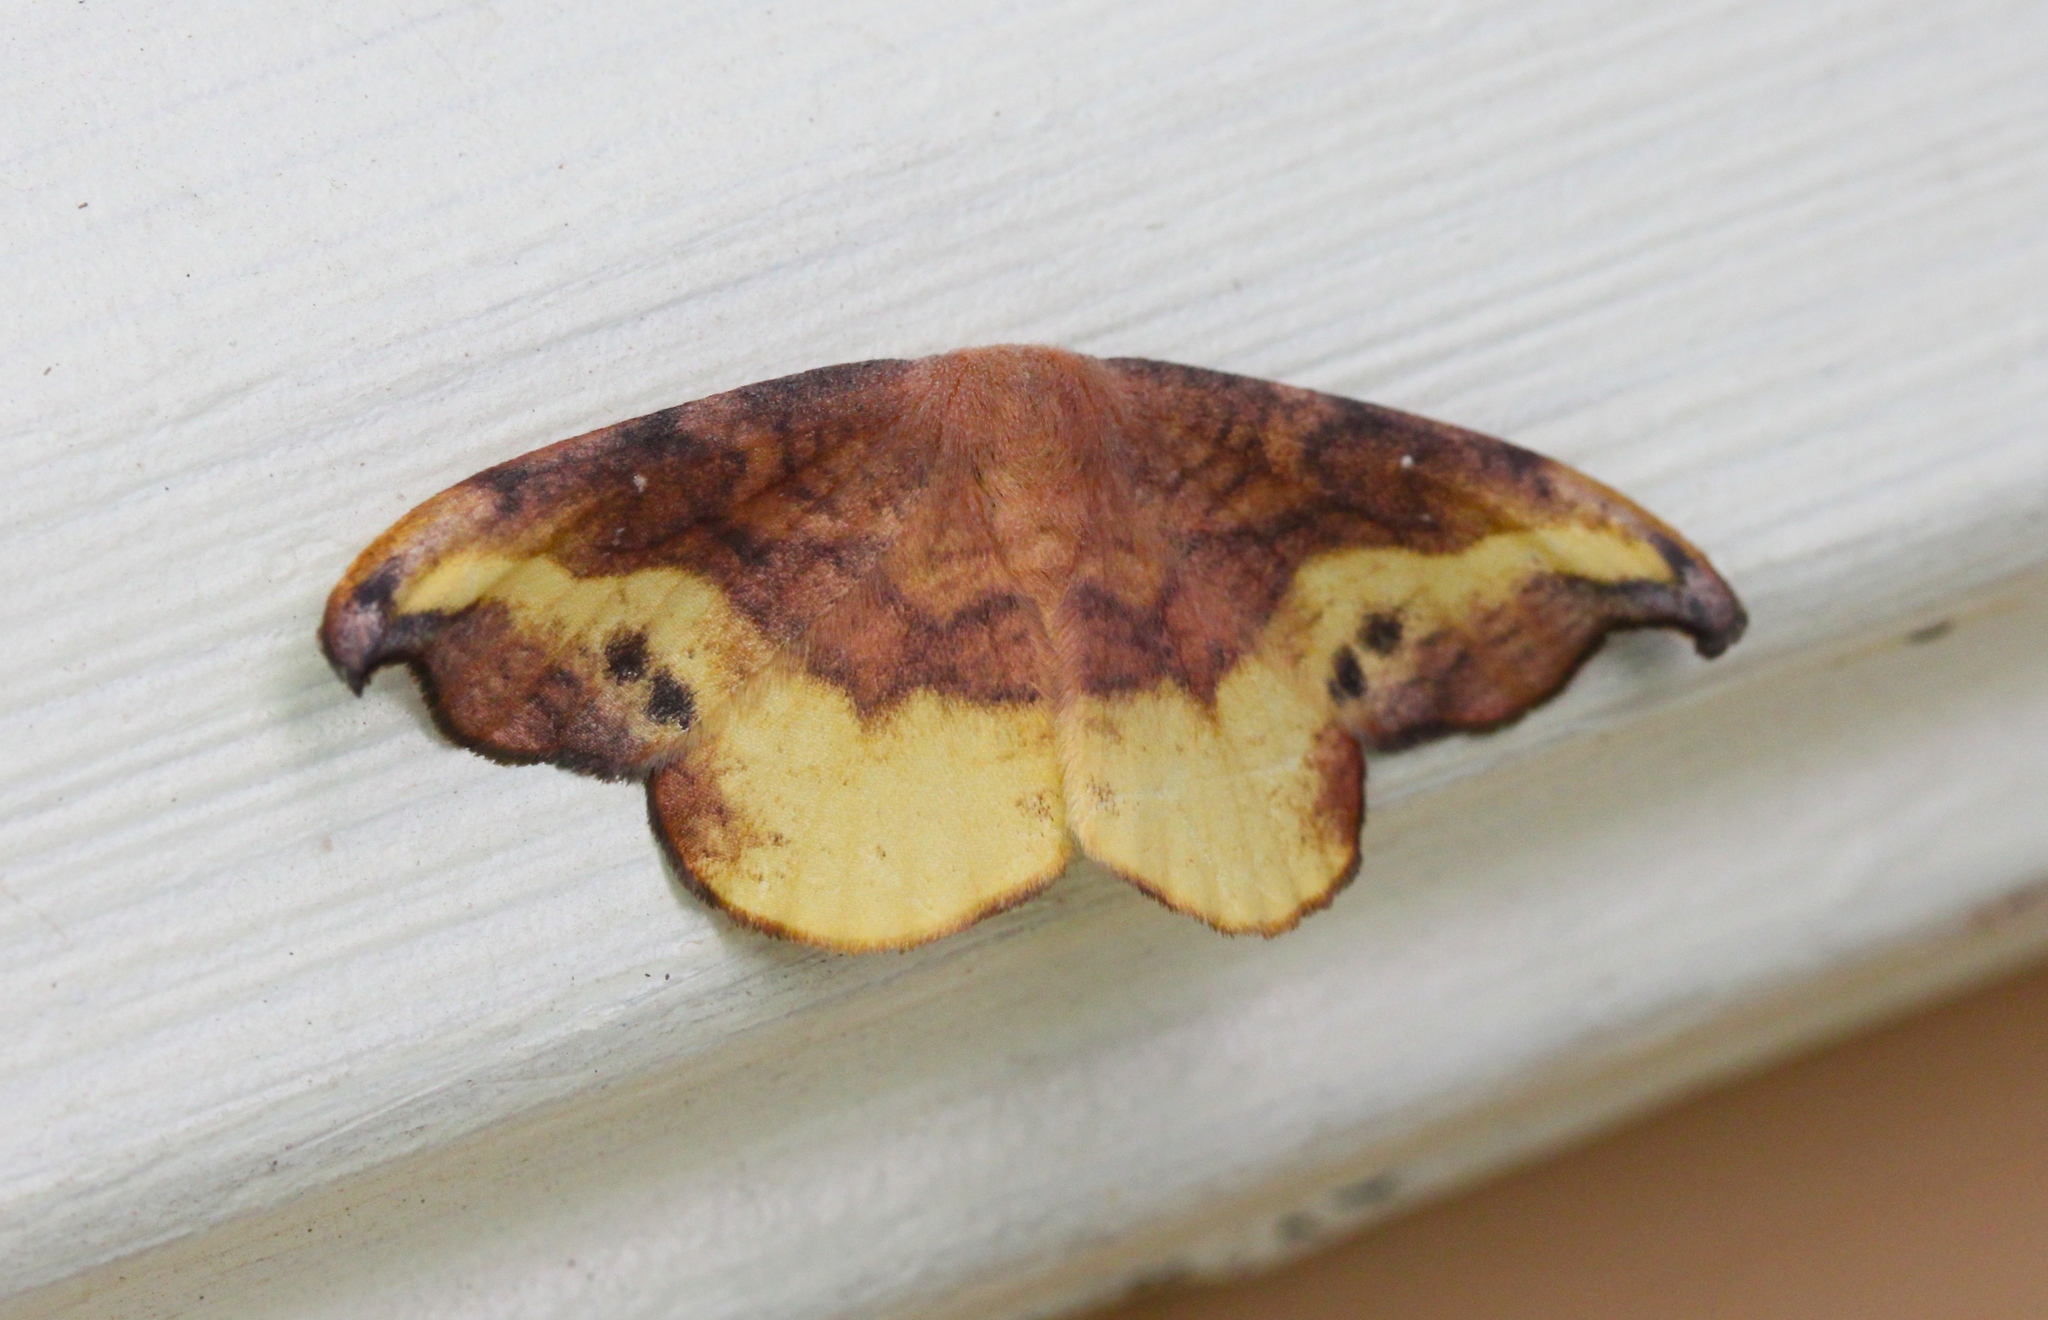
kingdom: Animalia
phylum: Arthropoda
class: Insecta
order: Lepidoptera
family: Drepanidae
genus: Oreta
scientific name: Oreta rosea
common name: Rose hooktip
